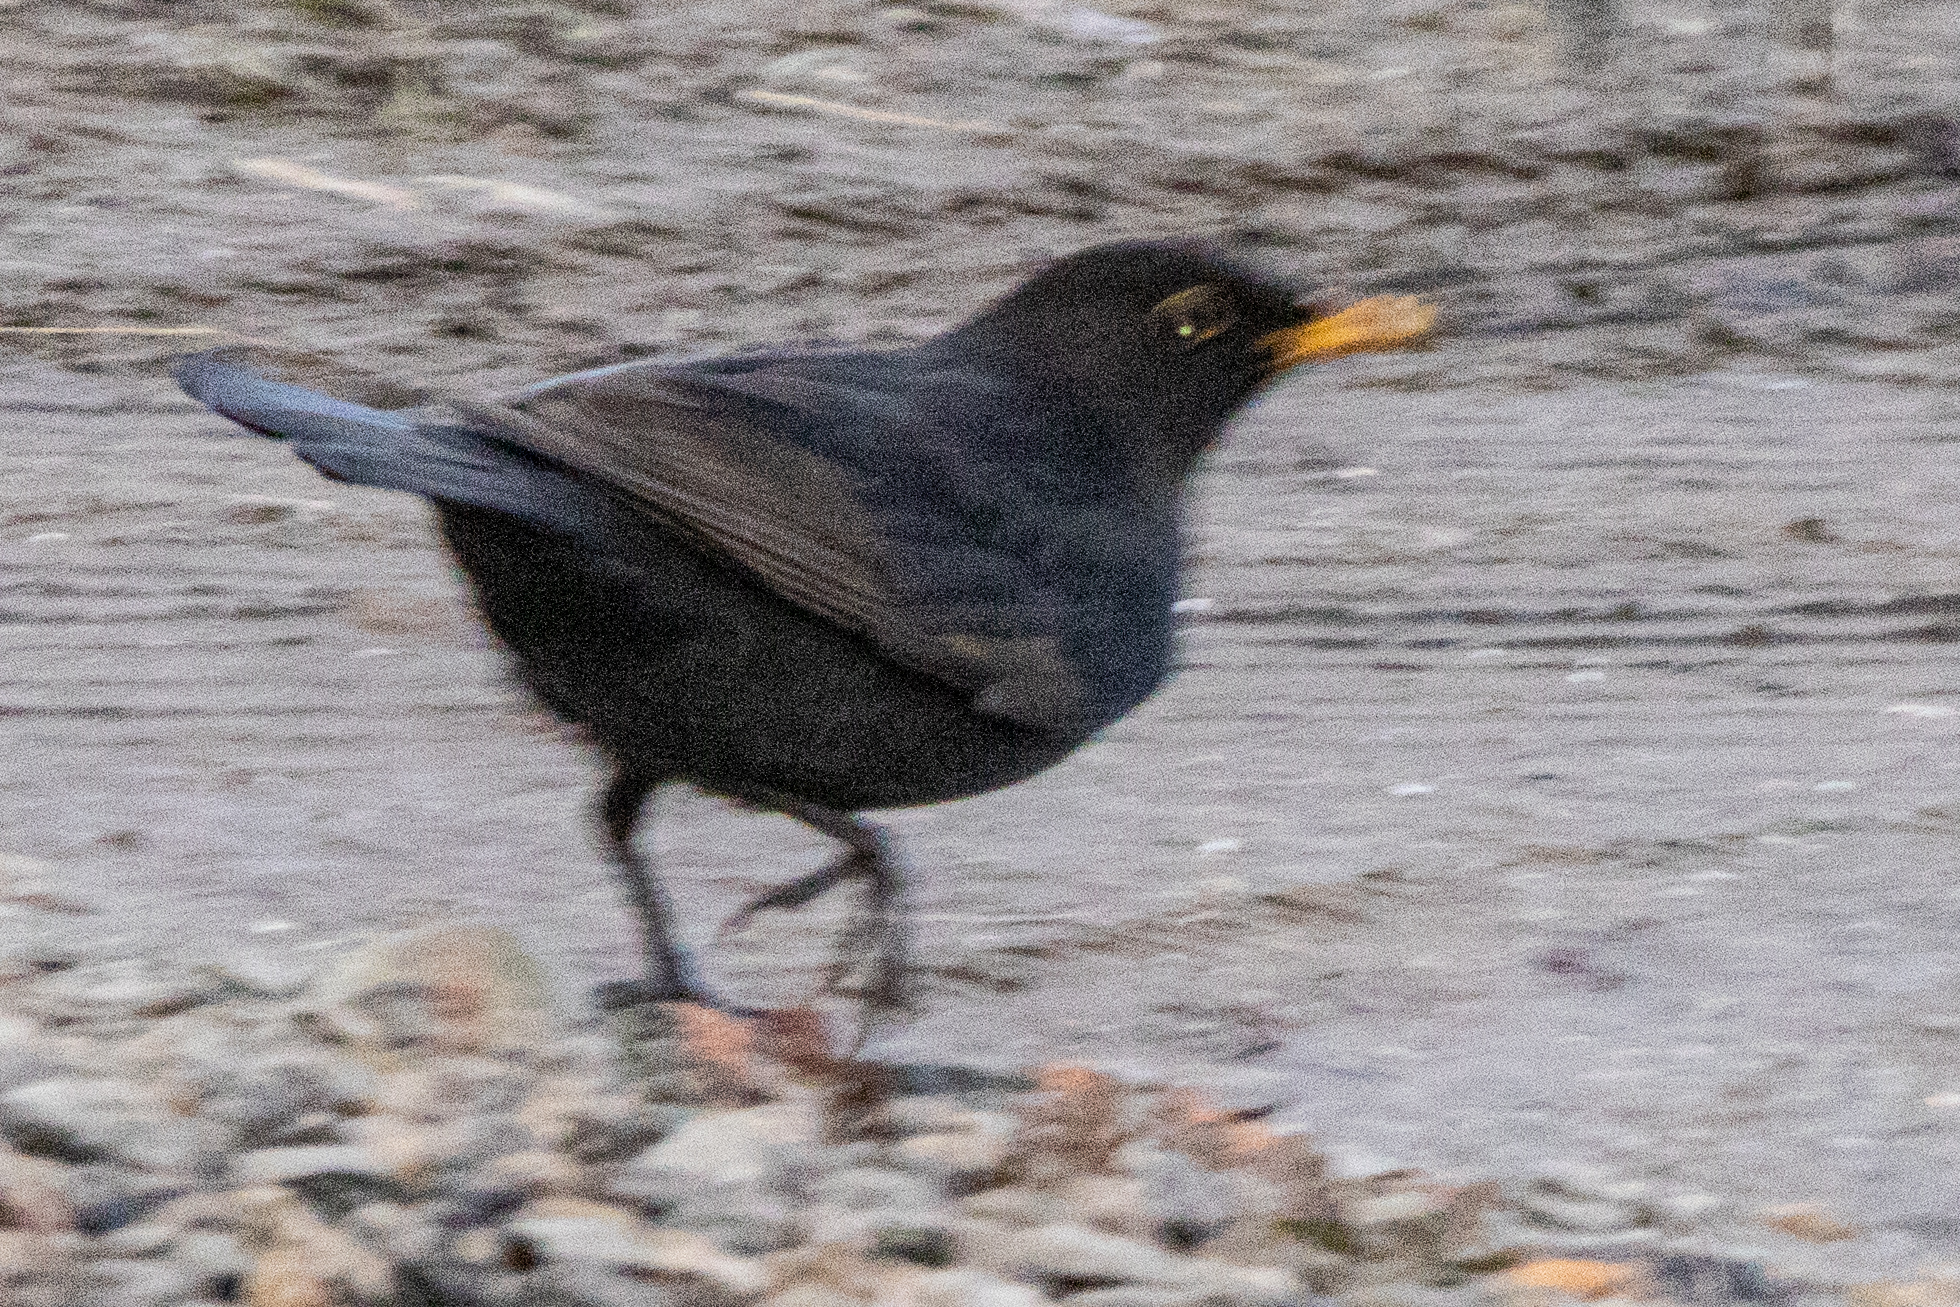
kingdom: Animalia
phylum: Chordata
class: Aves
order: Passeriformes
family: Turdidae
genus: Turdus
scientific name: Turdus merula
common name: Common blackbird
